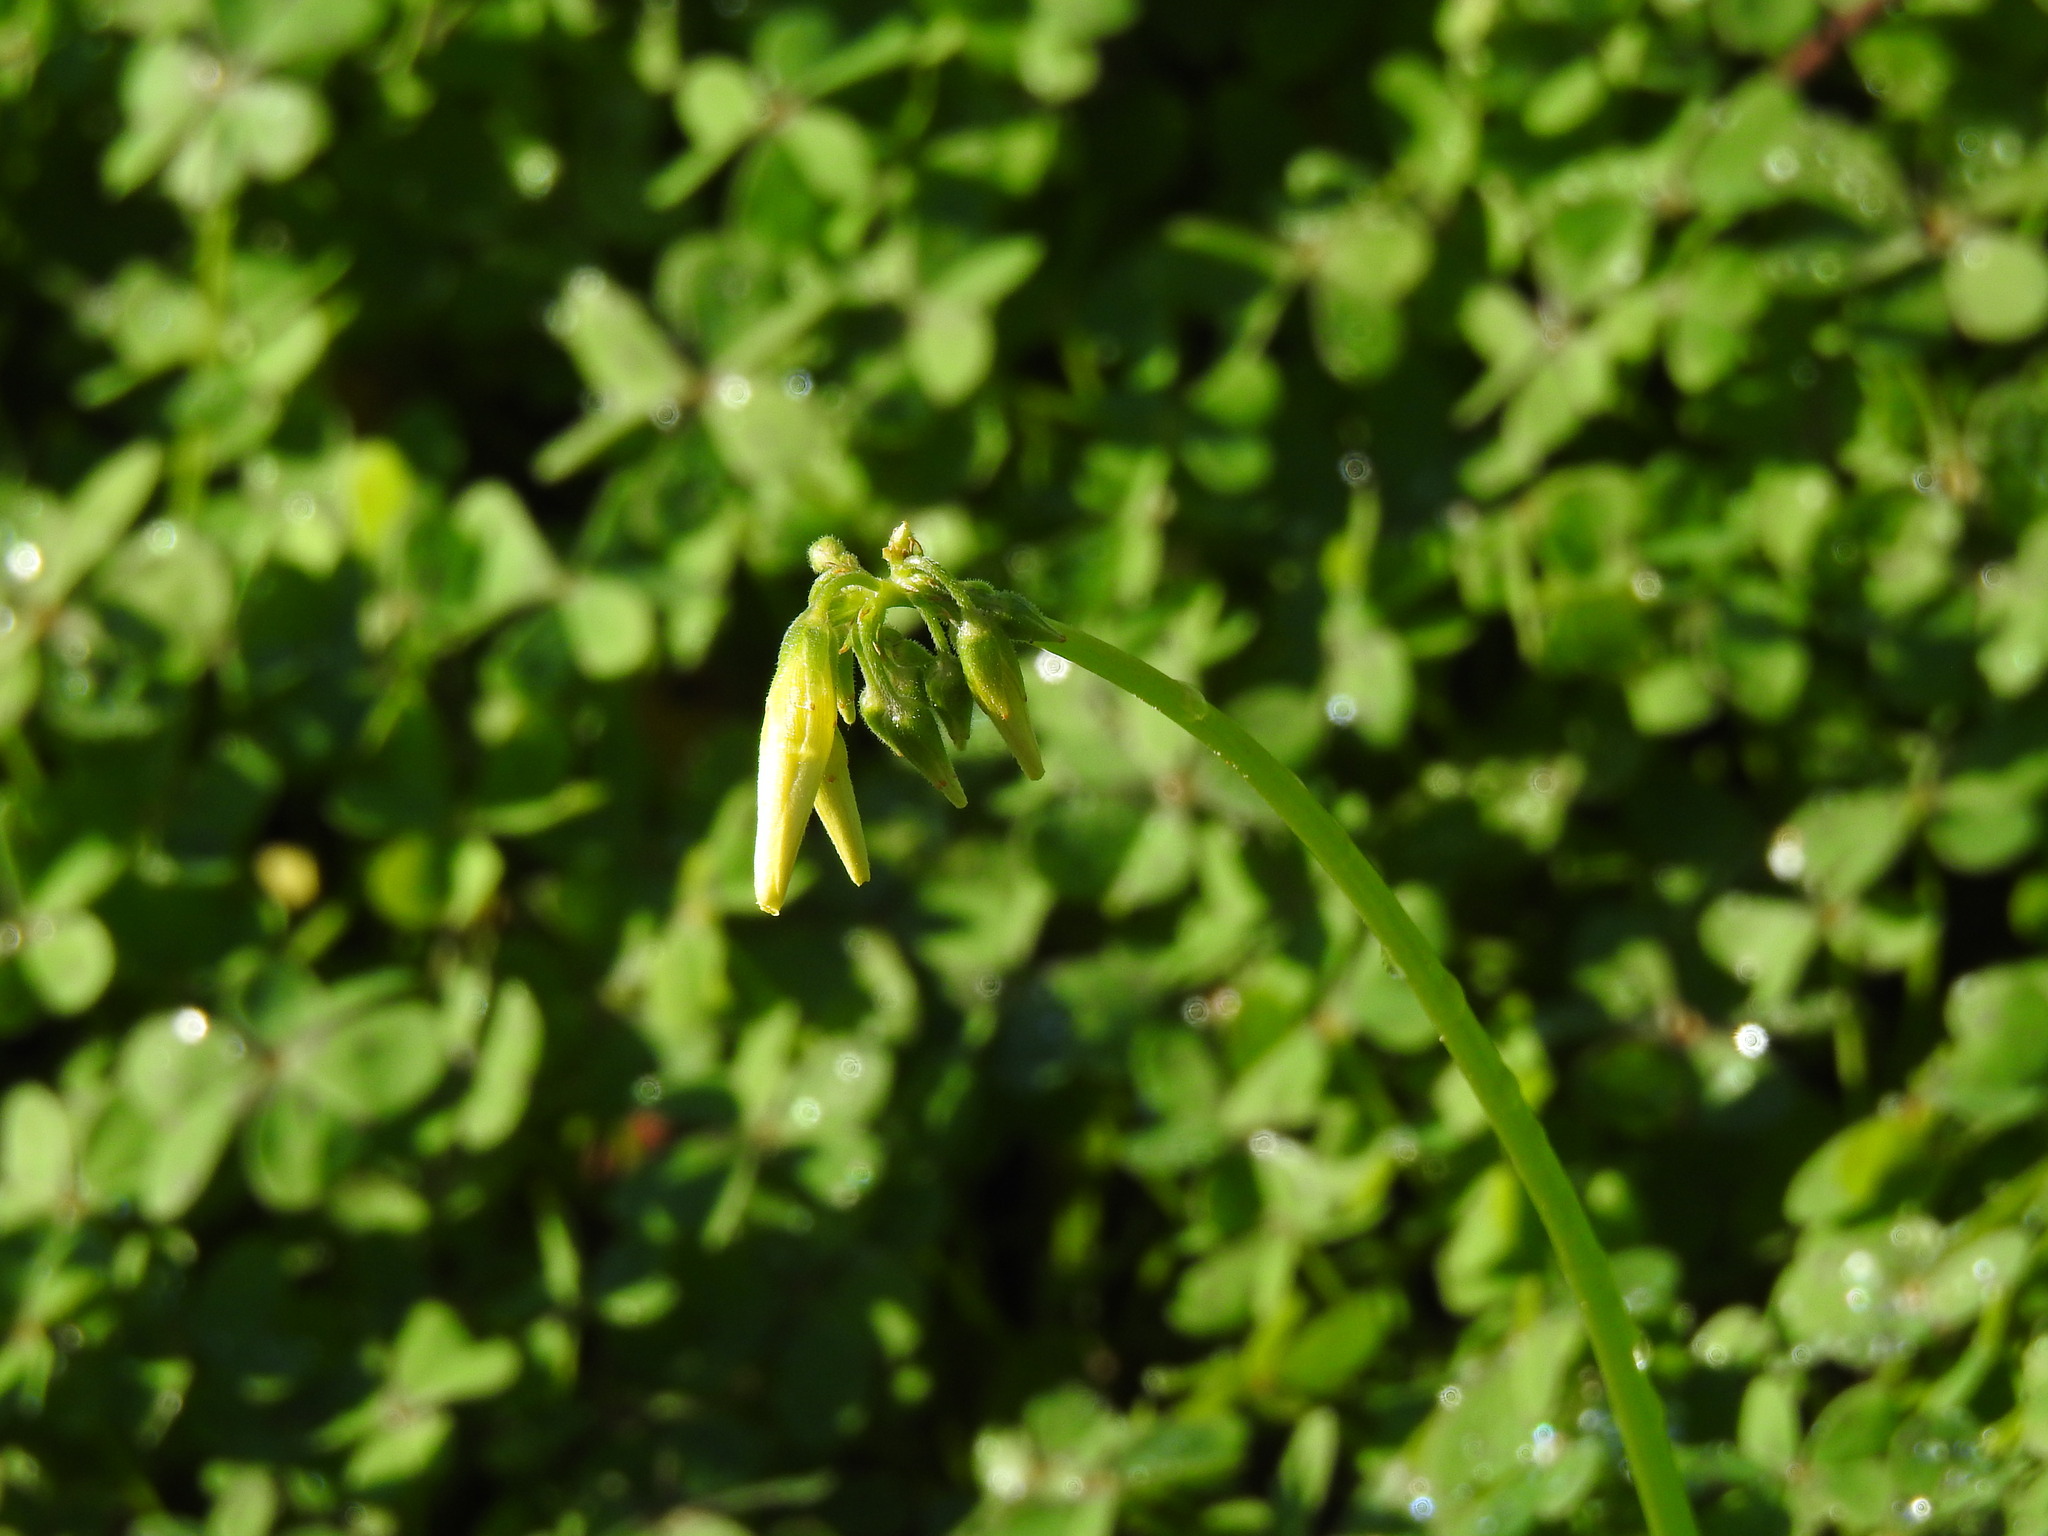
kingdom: Plantae
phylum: Tracheophyta
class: Magnoliopsida
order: Oxalidales
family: Oxalidaceae
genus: Oxalis
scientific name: Oxalis pes-caprae
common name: Bermuda-buttercup
